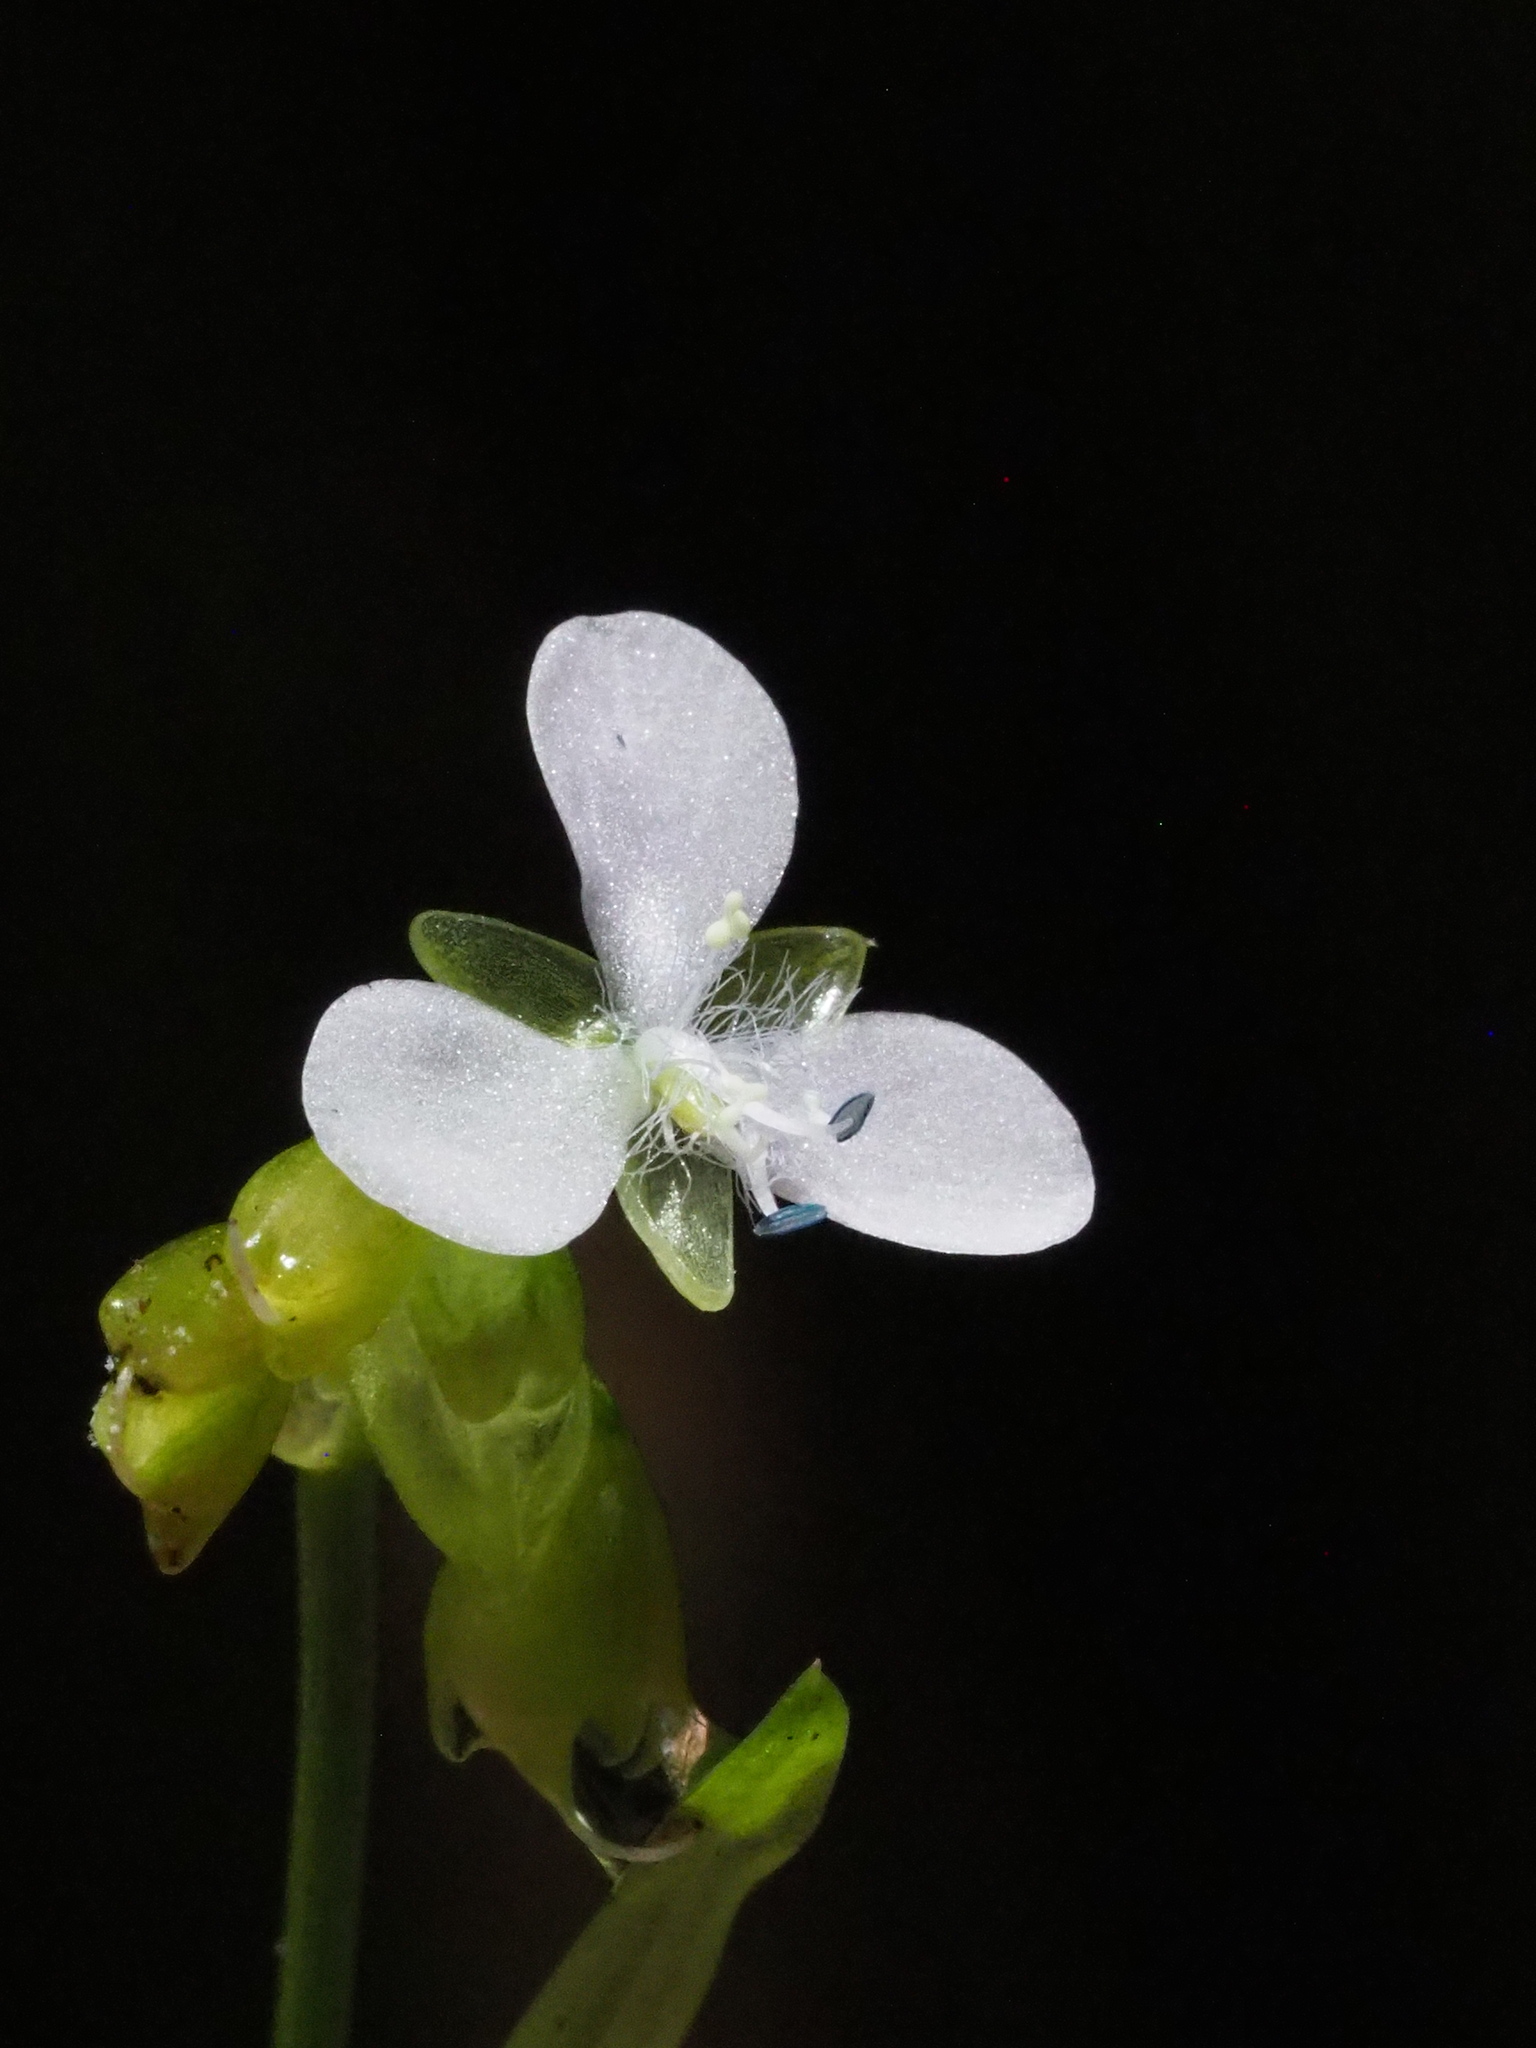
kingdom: Plantae
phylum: Tracheophyta
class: Liliopsida
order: Commelinales
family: Commelinaceae
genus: Murdannia
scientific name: Murdannia loriformis
